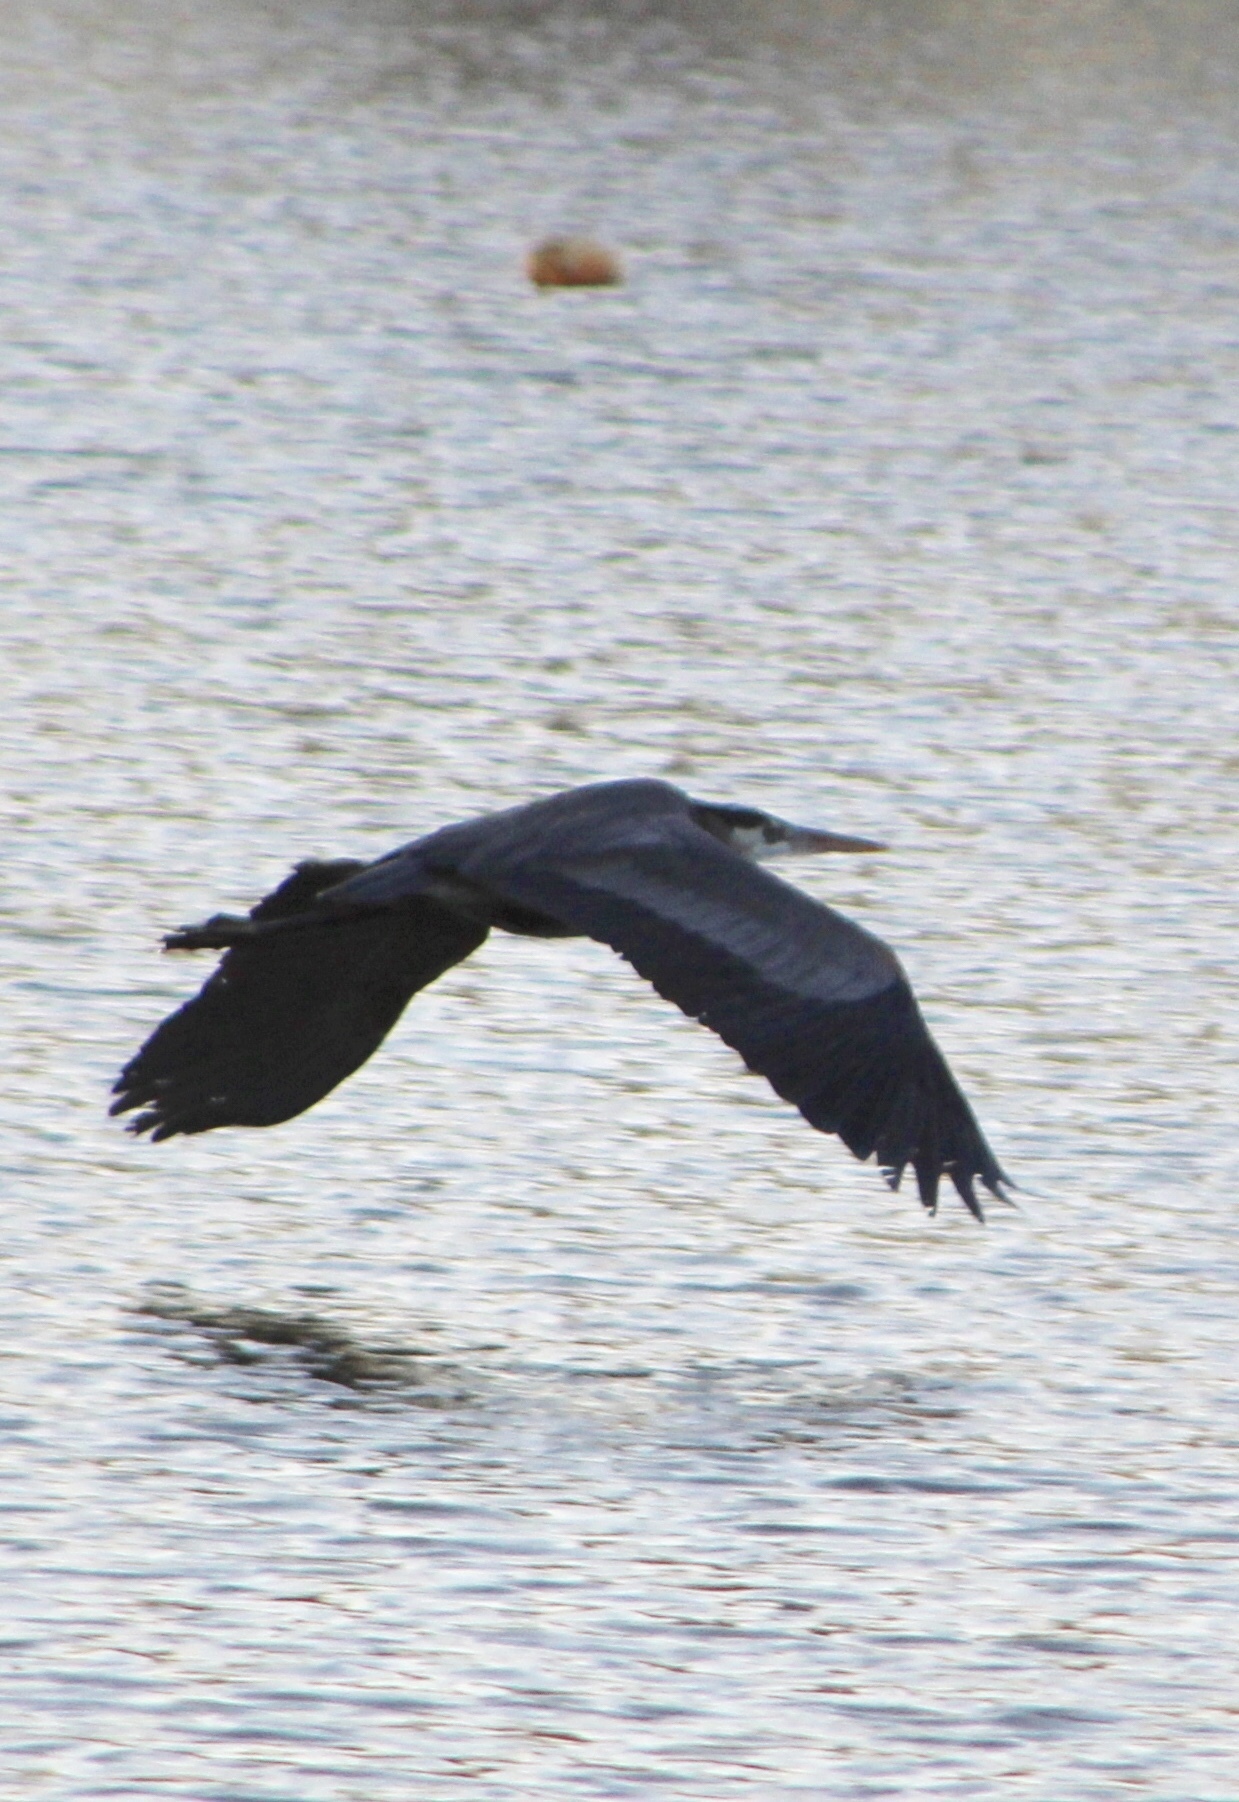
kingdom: Animalia
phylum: Chordata
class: Aves
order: Pelecaniformes
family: Ardeidae
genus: Ardea
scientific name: Ardea herodias
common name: Great blue heron
